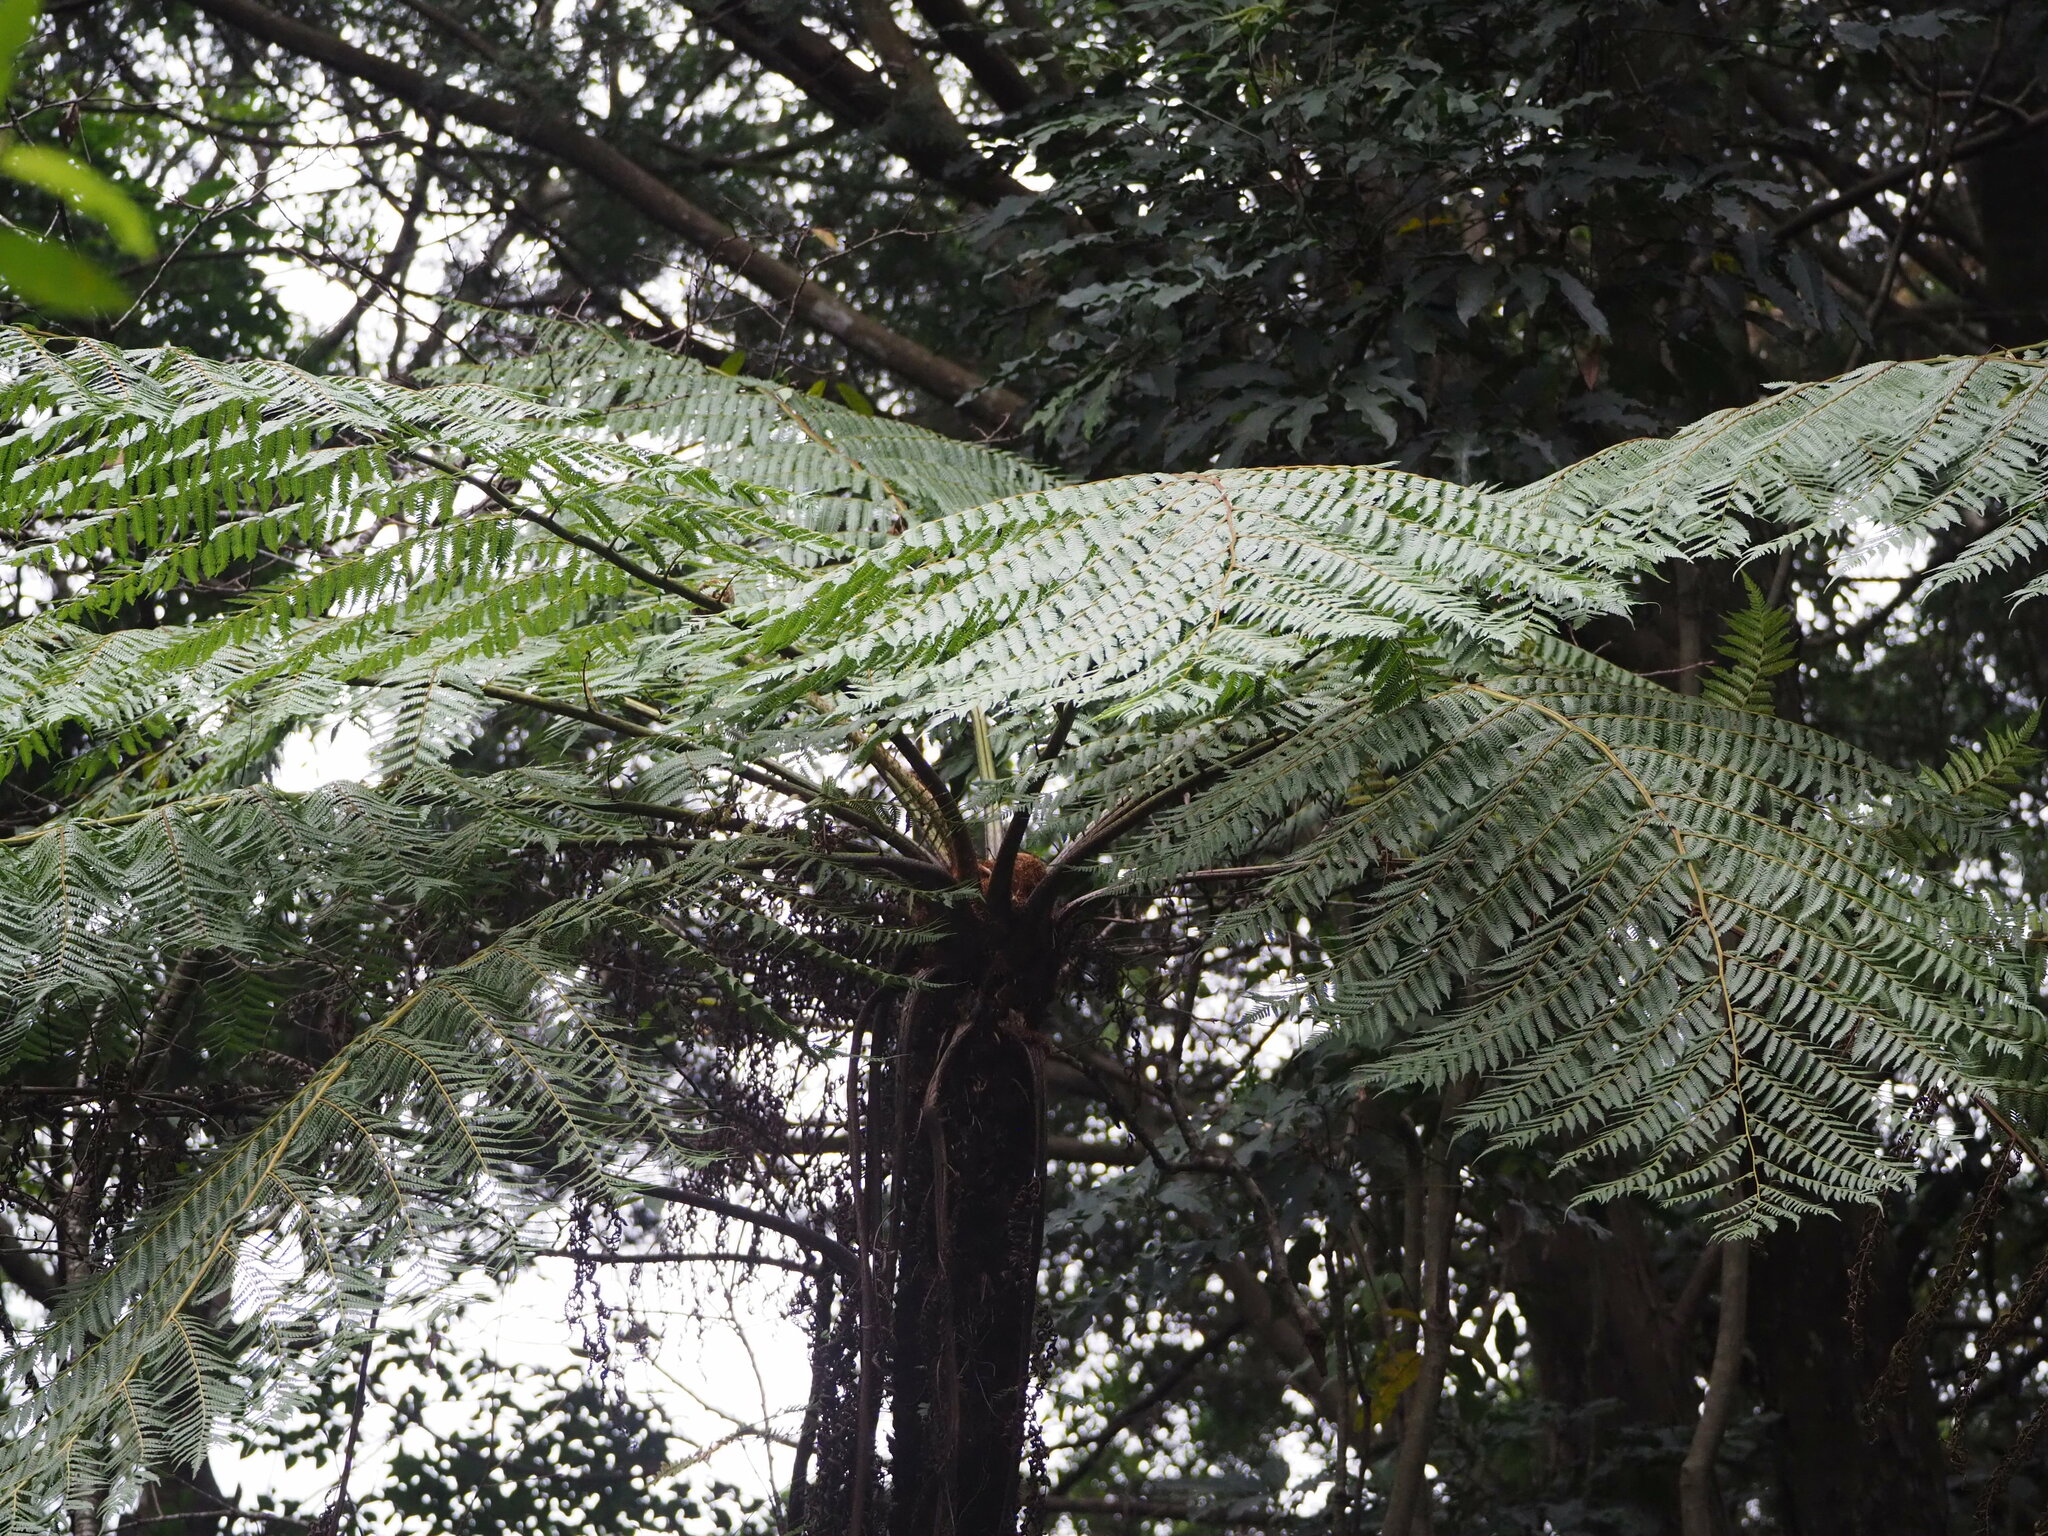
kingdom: Plantae
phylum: Tracheophyta
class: Polypodiopsida
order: Cyatheales
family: Cyatheaceae
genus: Alsophila
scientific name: Alsophila spinulosa
